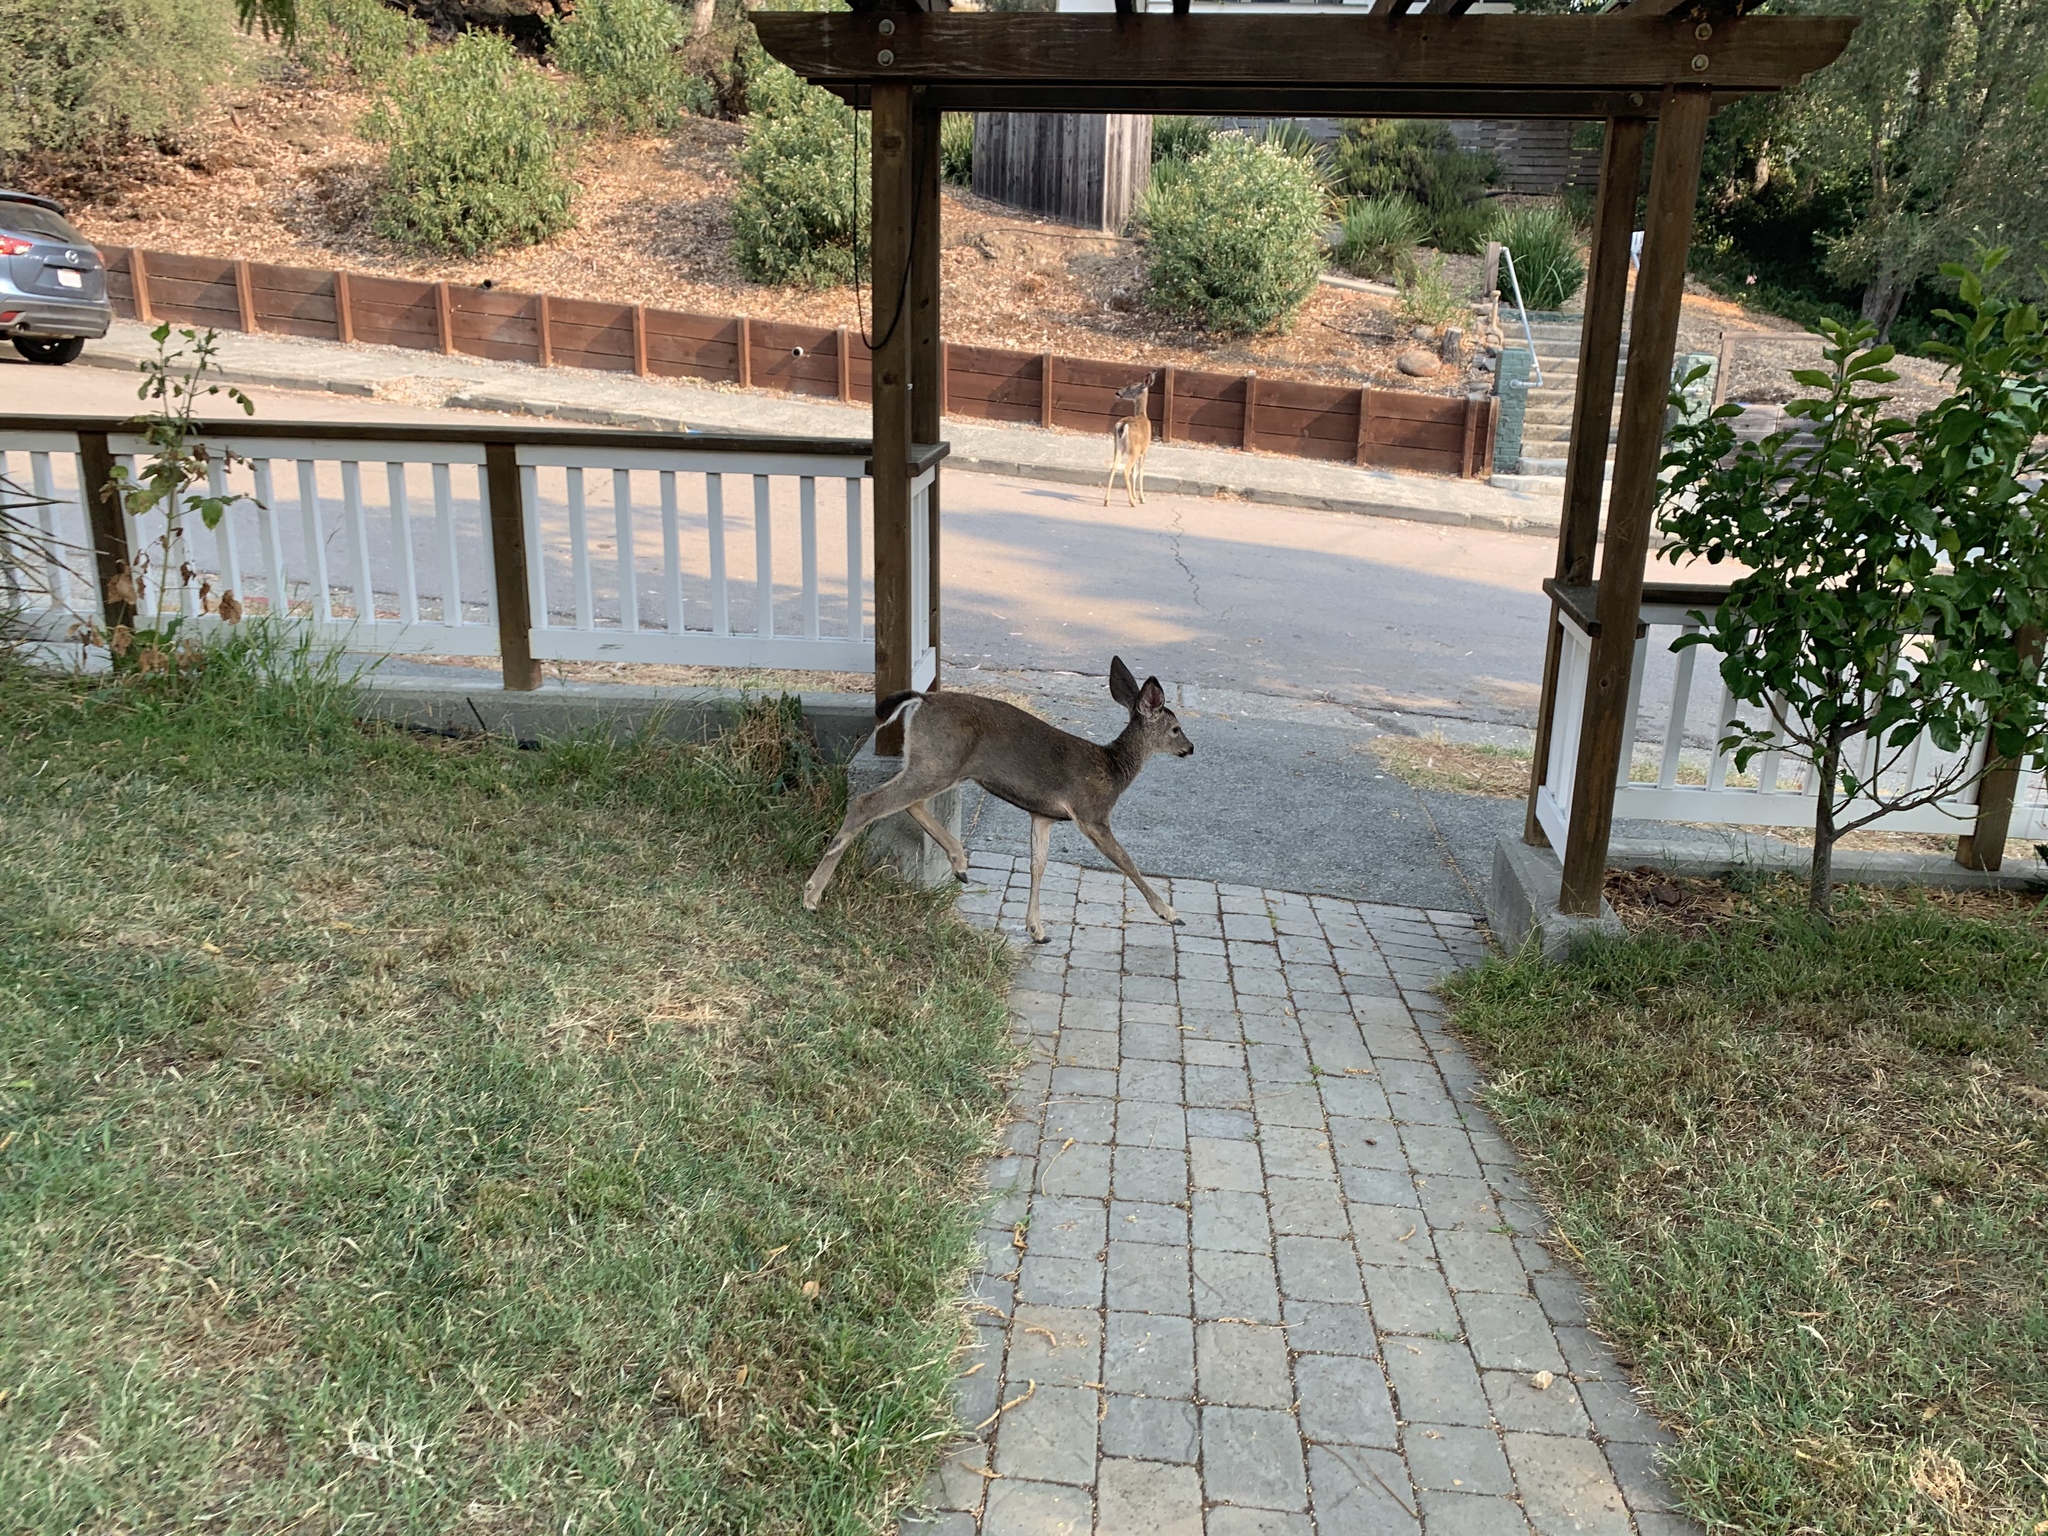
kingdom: Animalia
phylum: Chordata
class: Mammalia
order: Artiodactyla
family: Cervidae
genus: Odocoileus
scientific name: Odocoileus hemionus
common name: Mule deer
